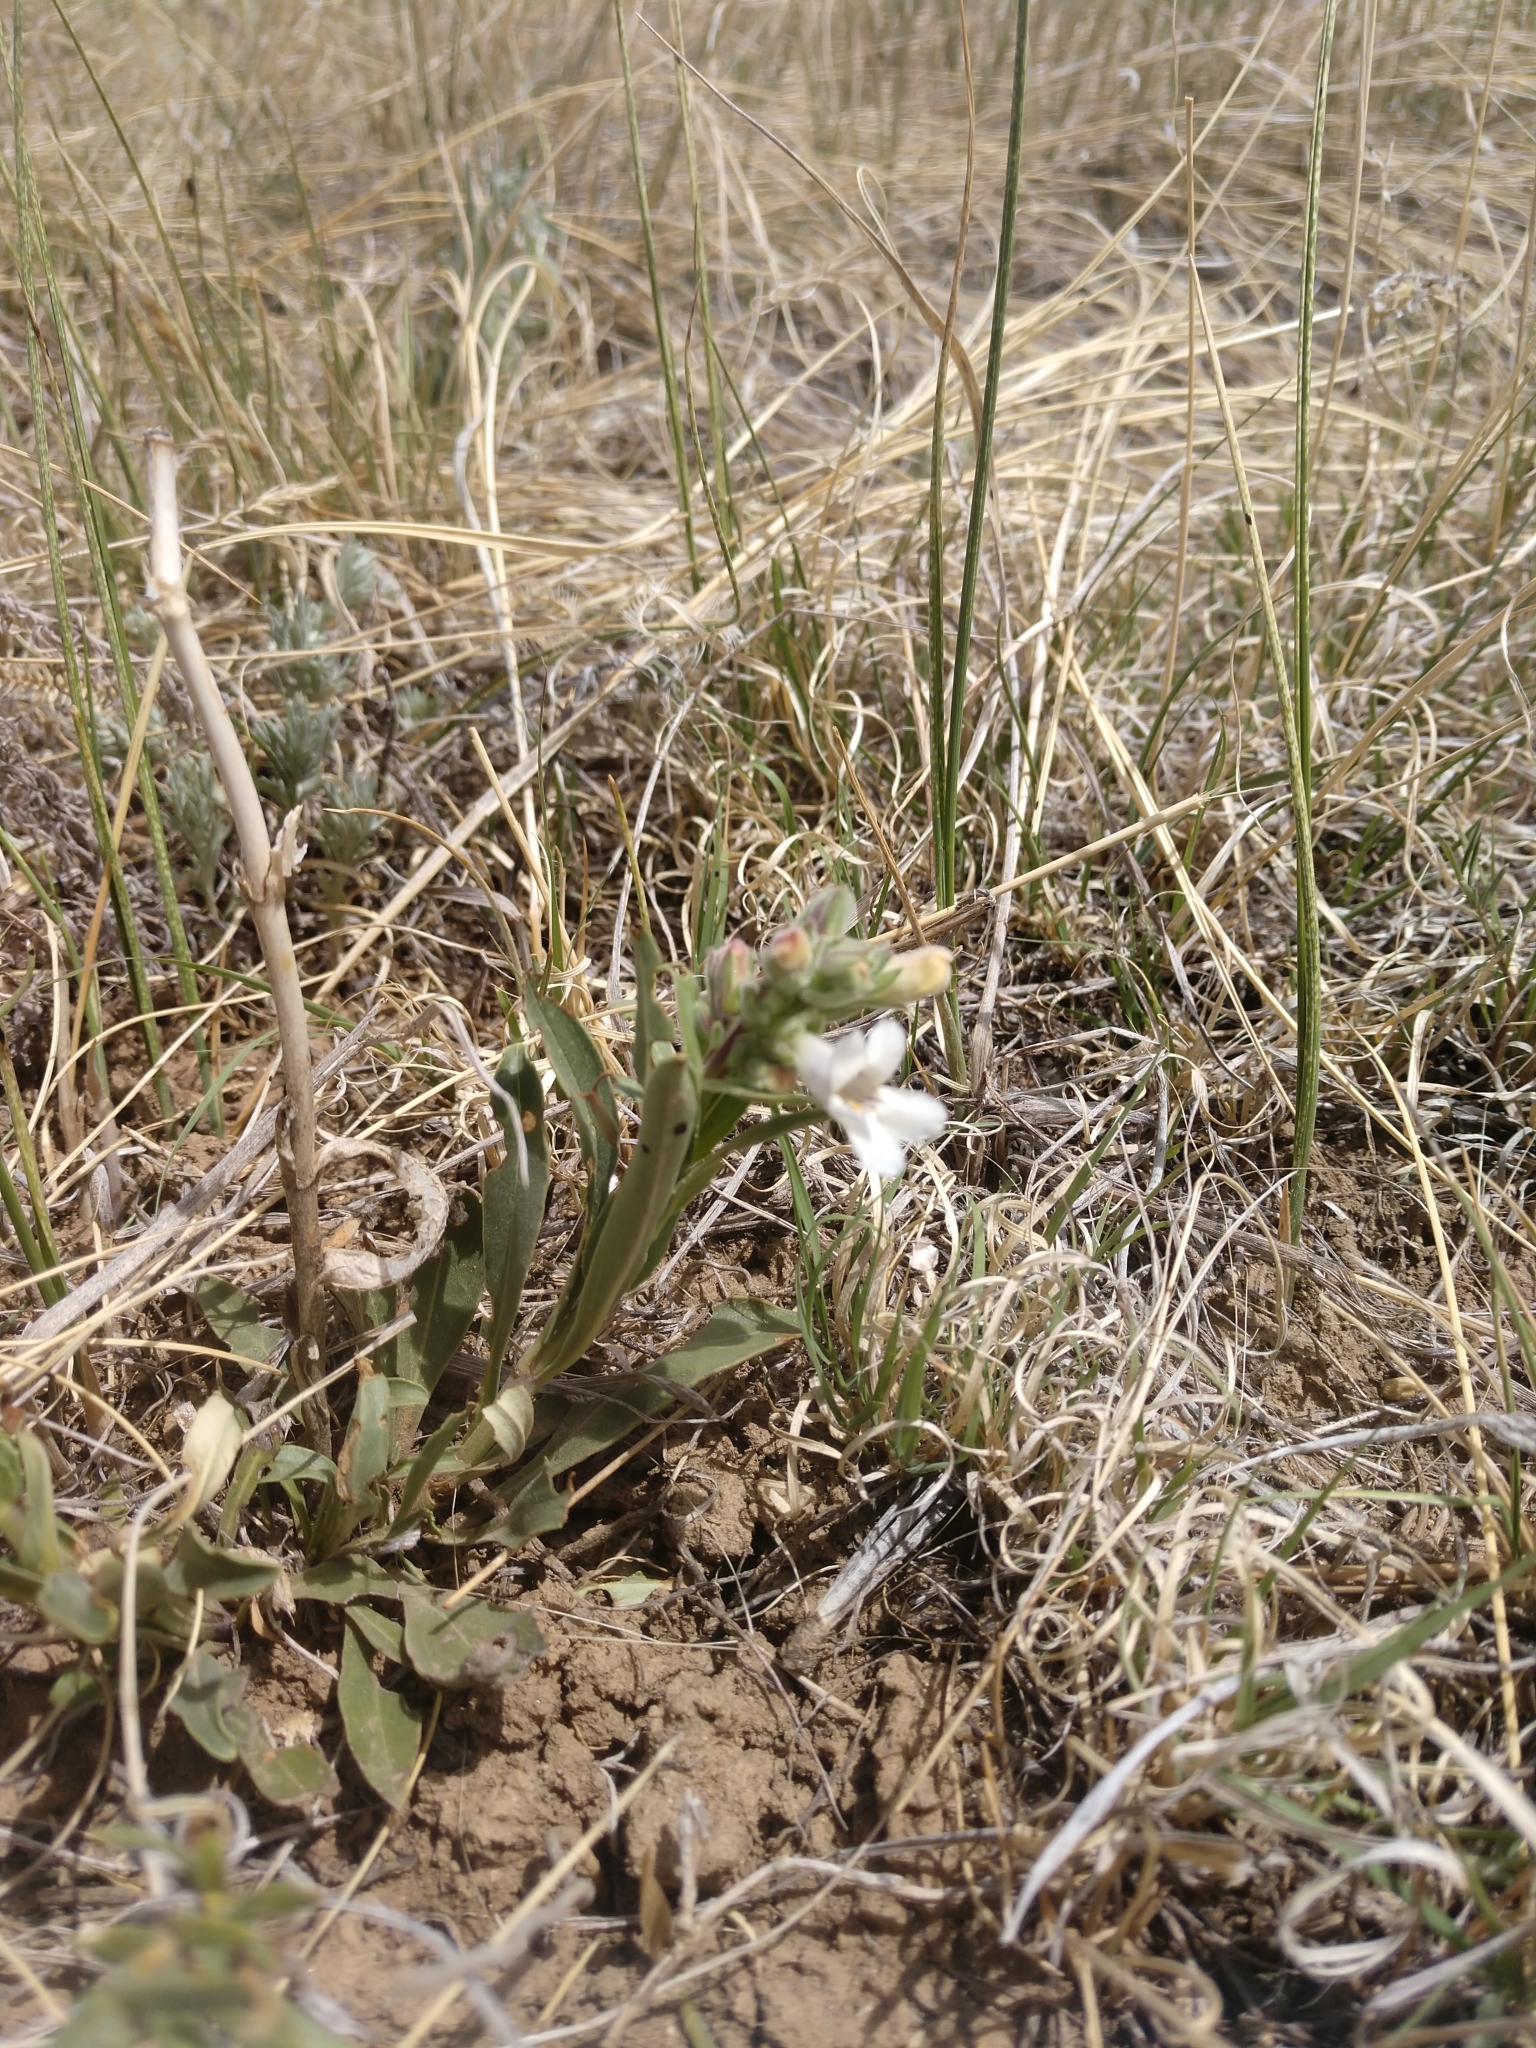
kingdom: Plantae
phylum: Tracheophyta
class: Magnoliopsida
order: Lamiales
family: Plantaginaceae
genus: Penstemon
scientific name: Penstemon albidus
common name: White beardtongue
